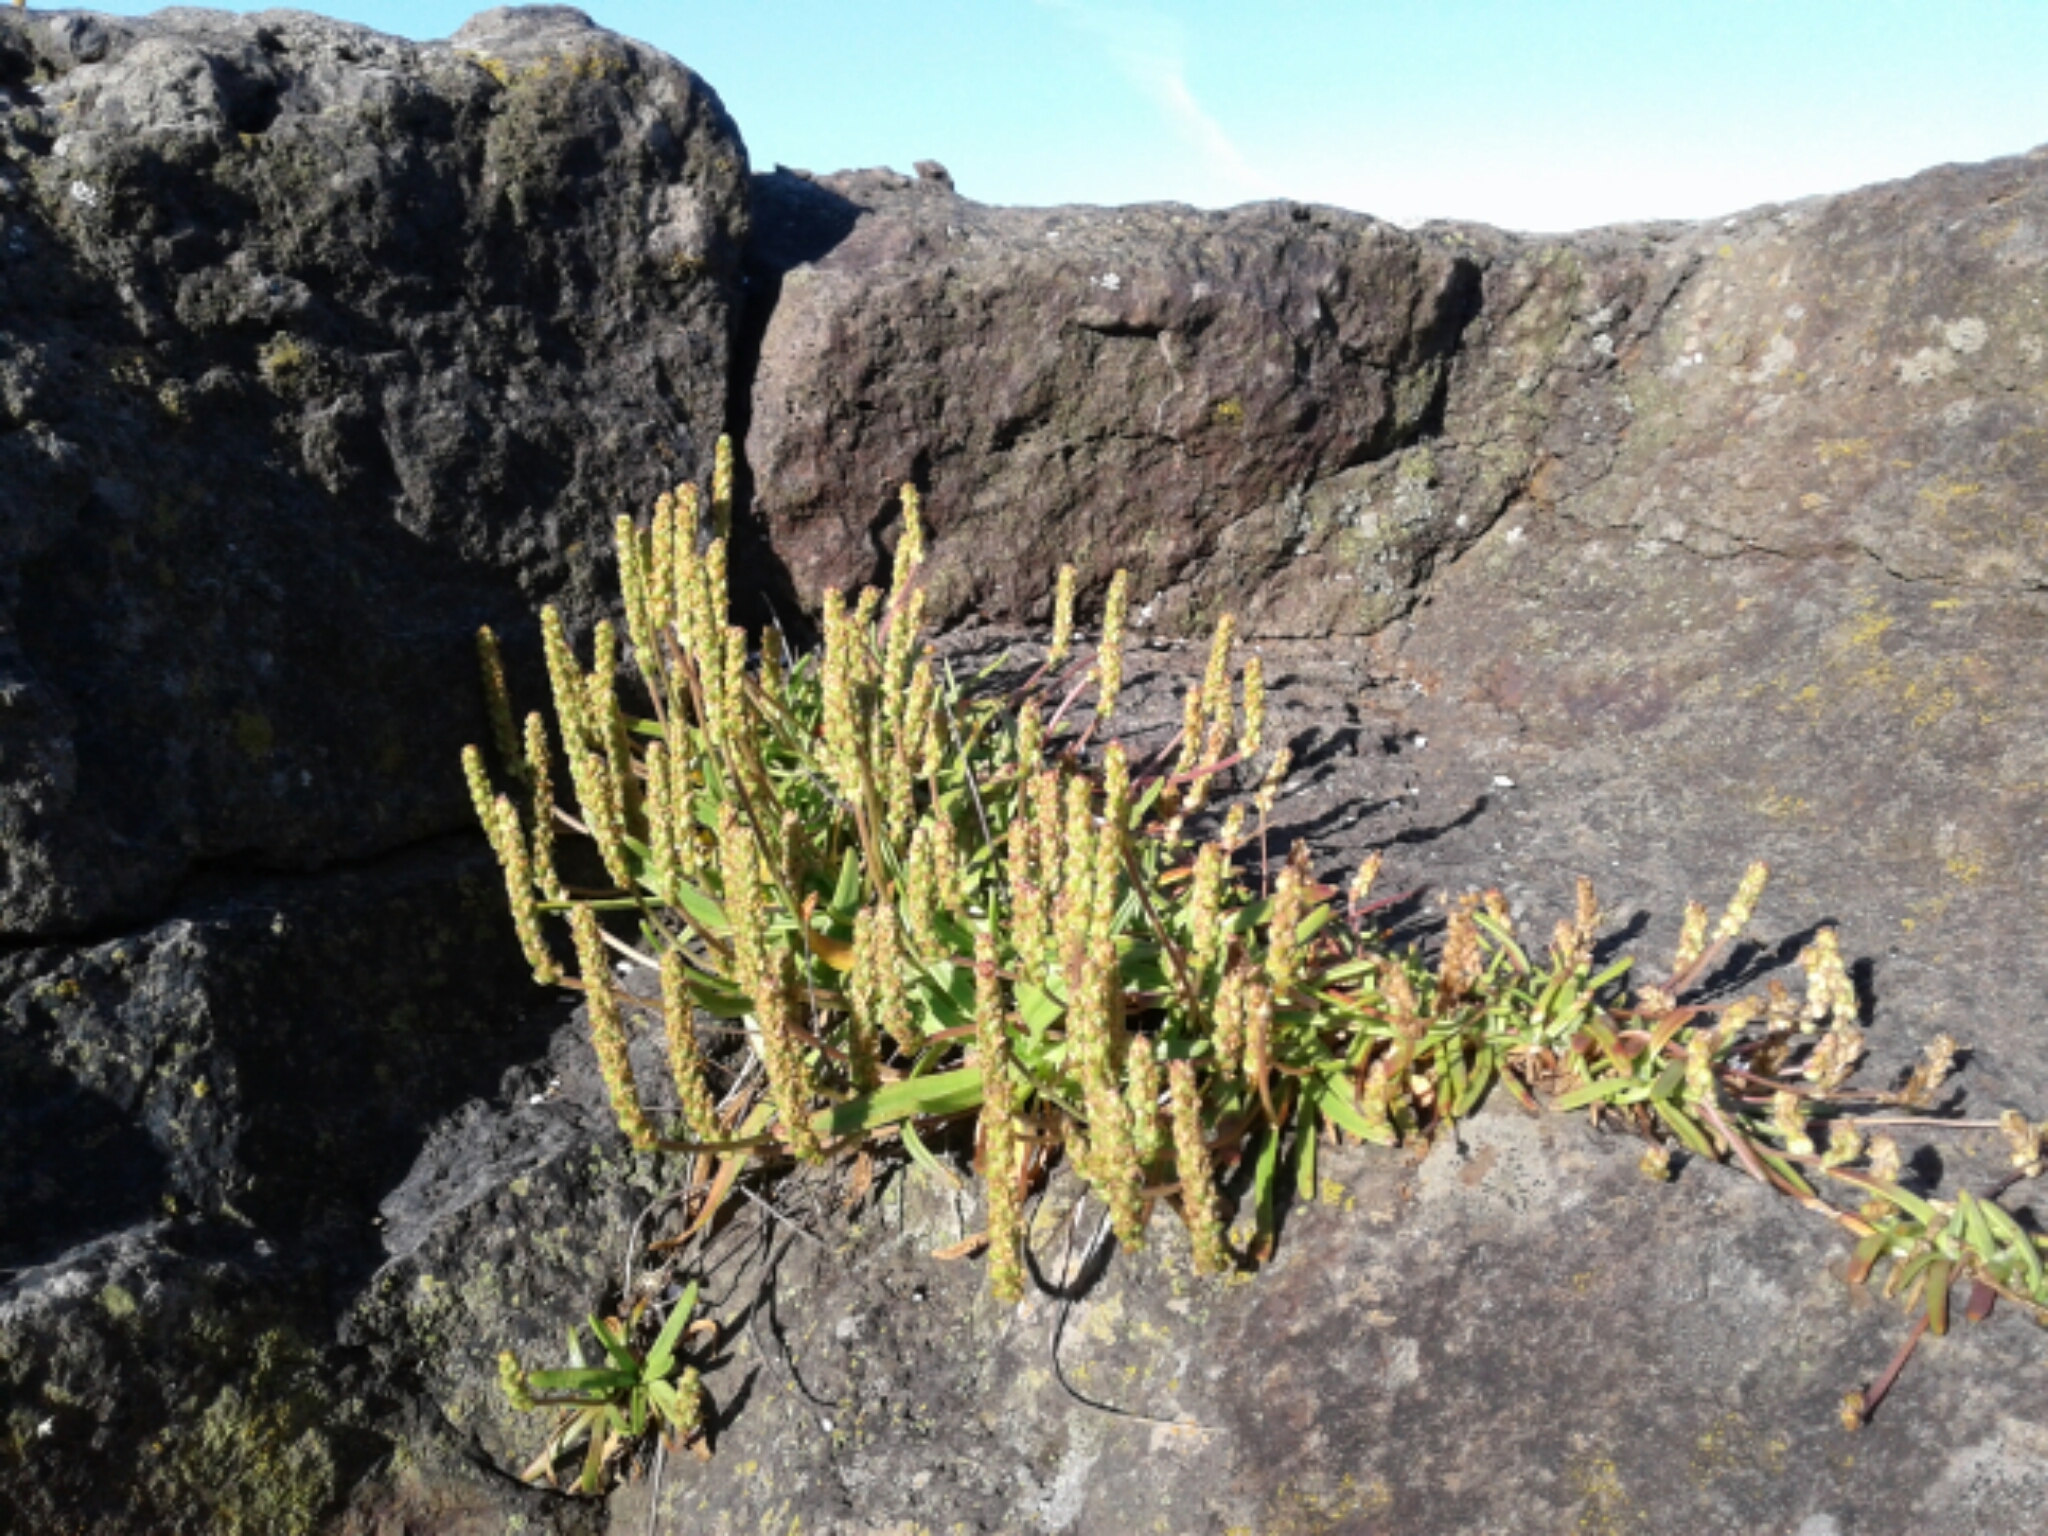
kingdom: Plantae
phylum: Tracheophyta
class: Magnoliopsida
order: Lamiales
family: Plantaginaceae
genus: Plantago
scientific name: Plantago maritima
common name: Sea plantain
